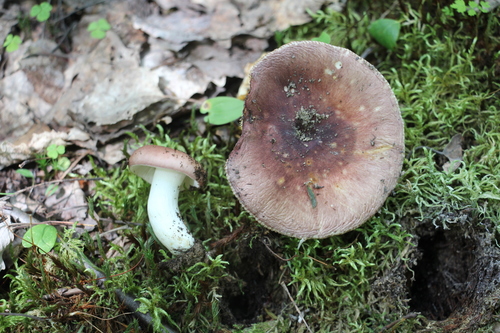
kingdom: Fungi
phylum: Basidiomycota
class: Agaricomycetes
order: Russulales
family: Russulaceae
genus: Russula
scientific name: Russula vesca
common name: Bare-toothed russula
